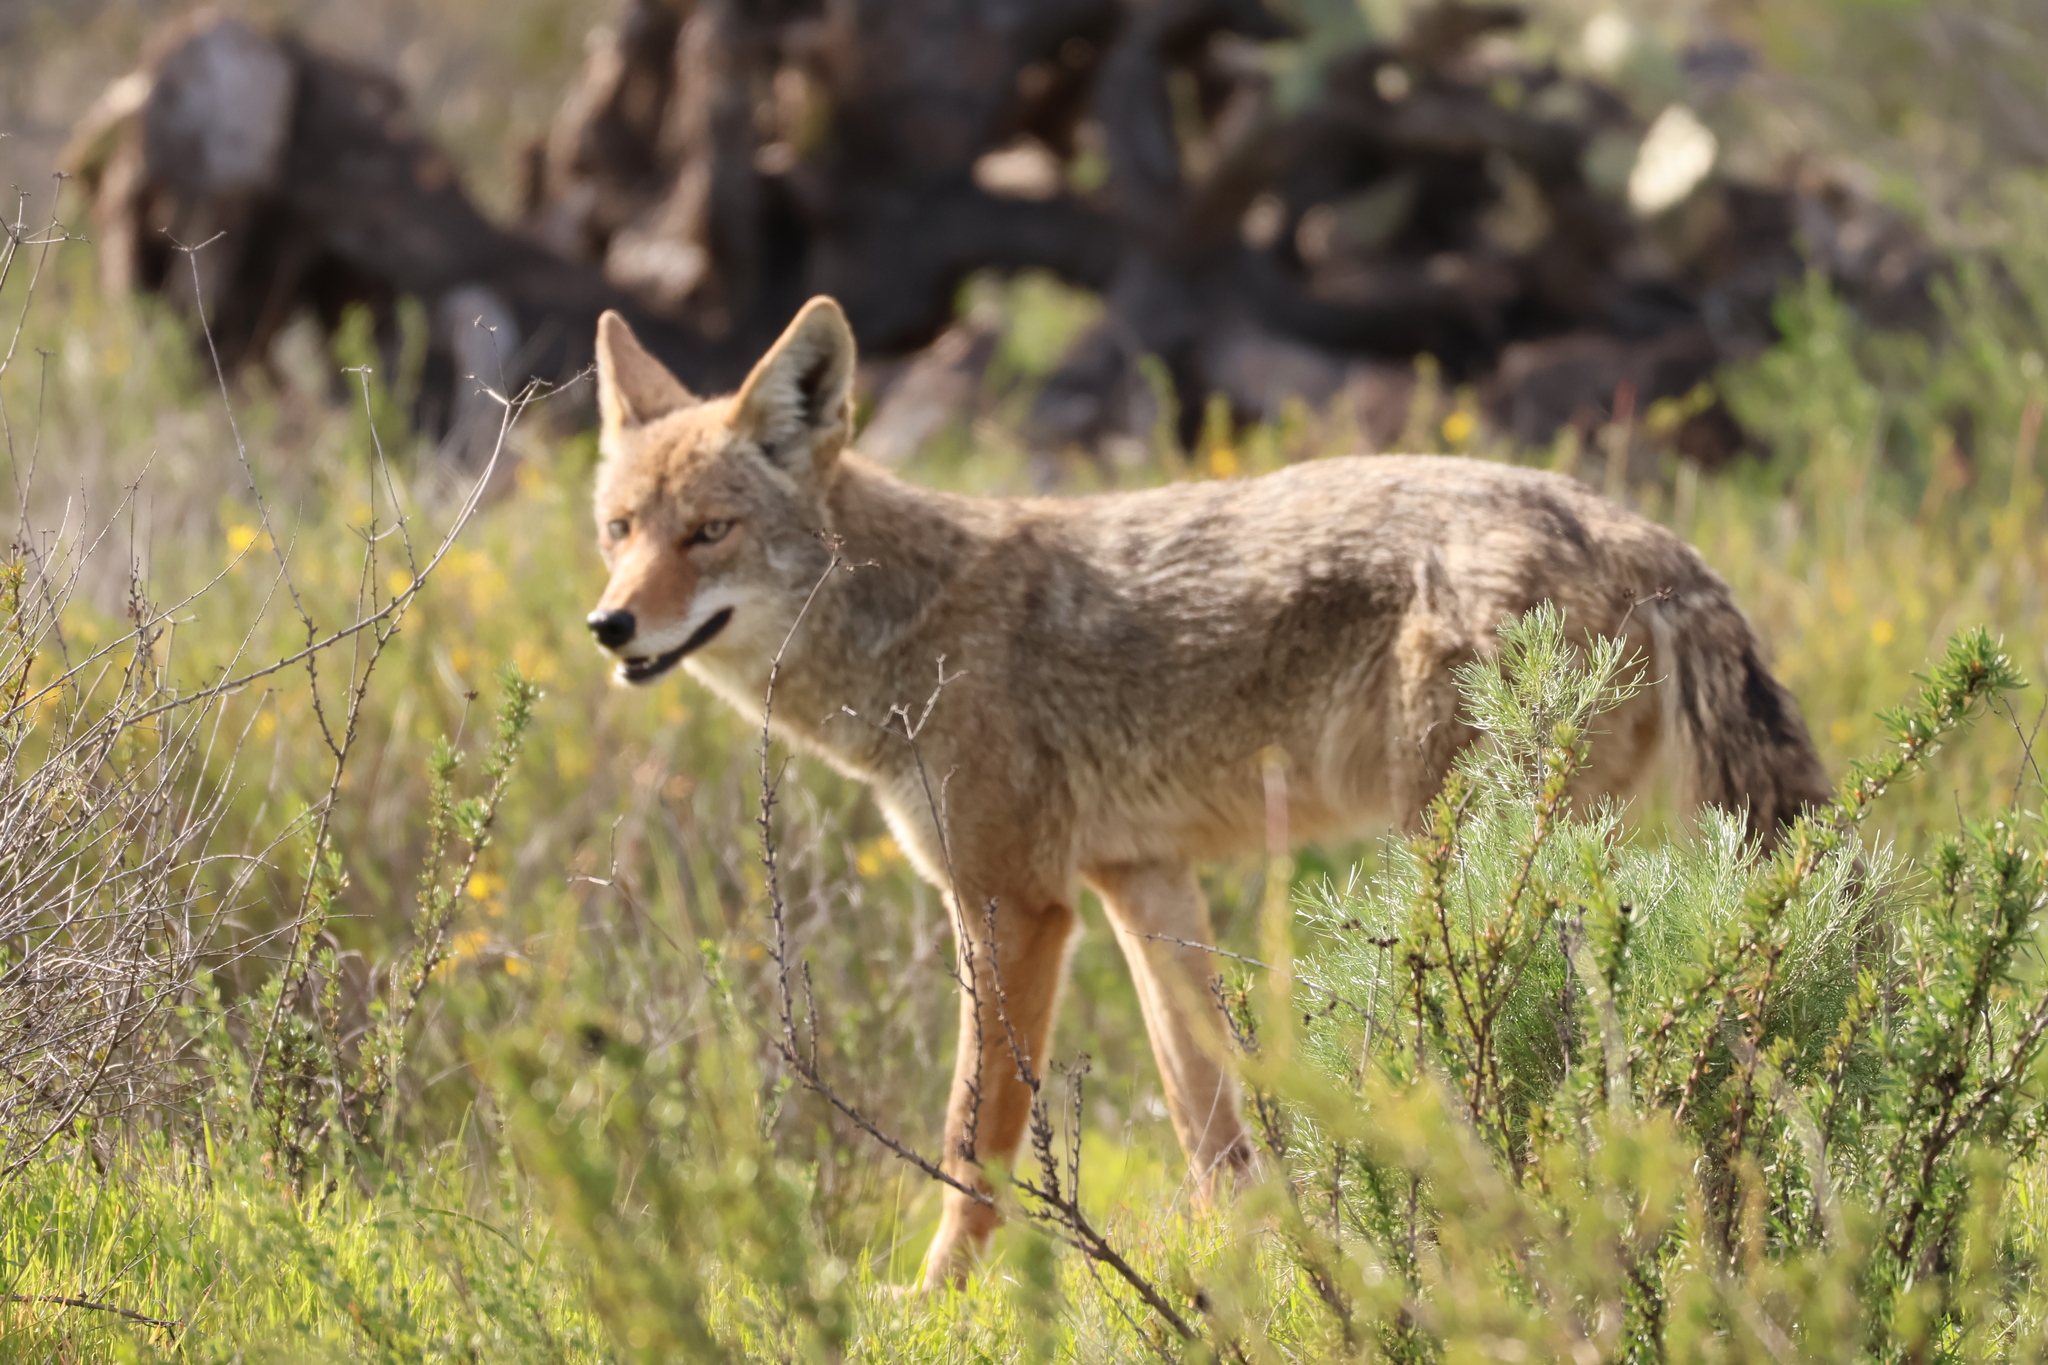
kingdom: Animalia
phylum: Chordata
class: Mammalia
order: Carnivora
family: Canidae
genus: Canis
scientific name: Canis latrans
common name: Coyote
